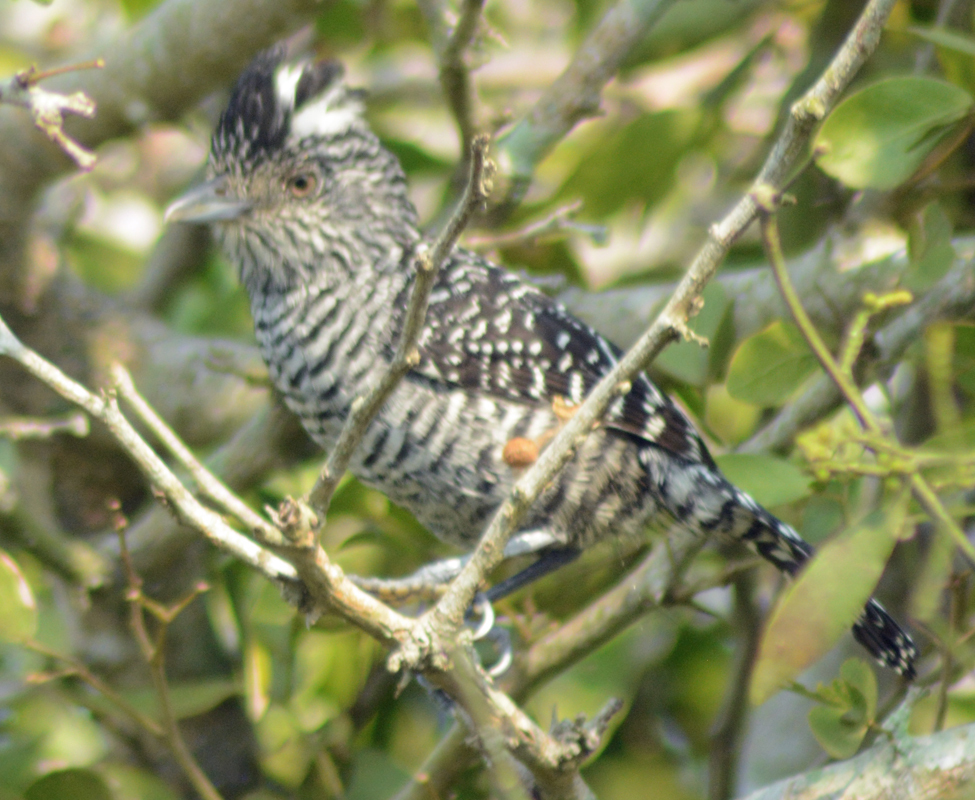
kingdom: Animalia
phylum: Chordata
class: Aves
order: Passeriformes
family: Thamnophilidae
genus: Thamnophilus
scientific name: Thamnophilus doliatus
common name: Barred antshrike
